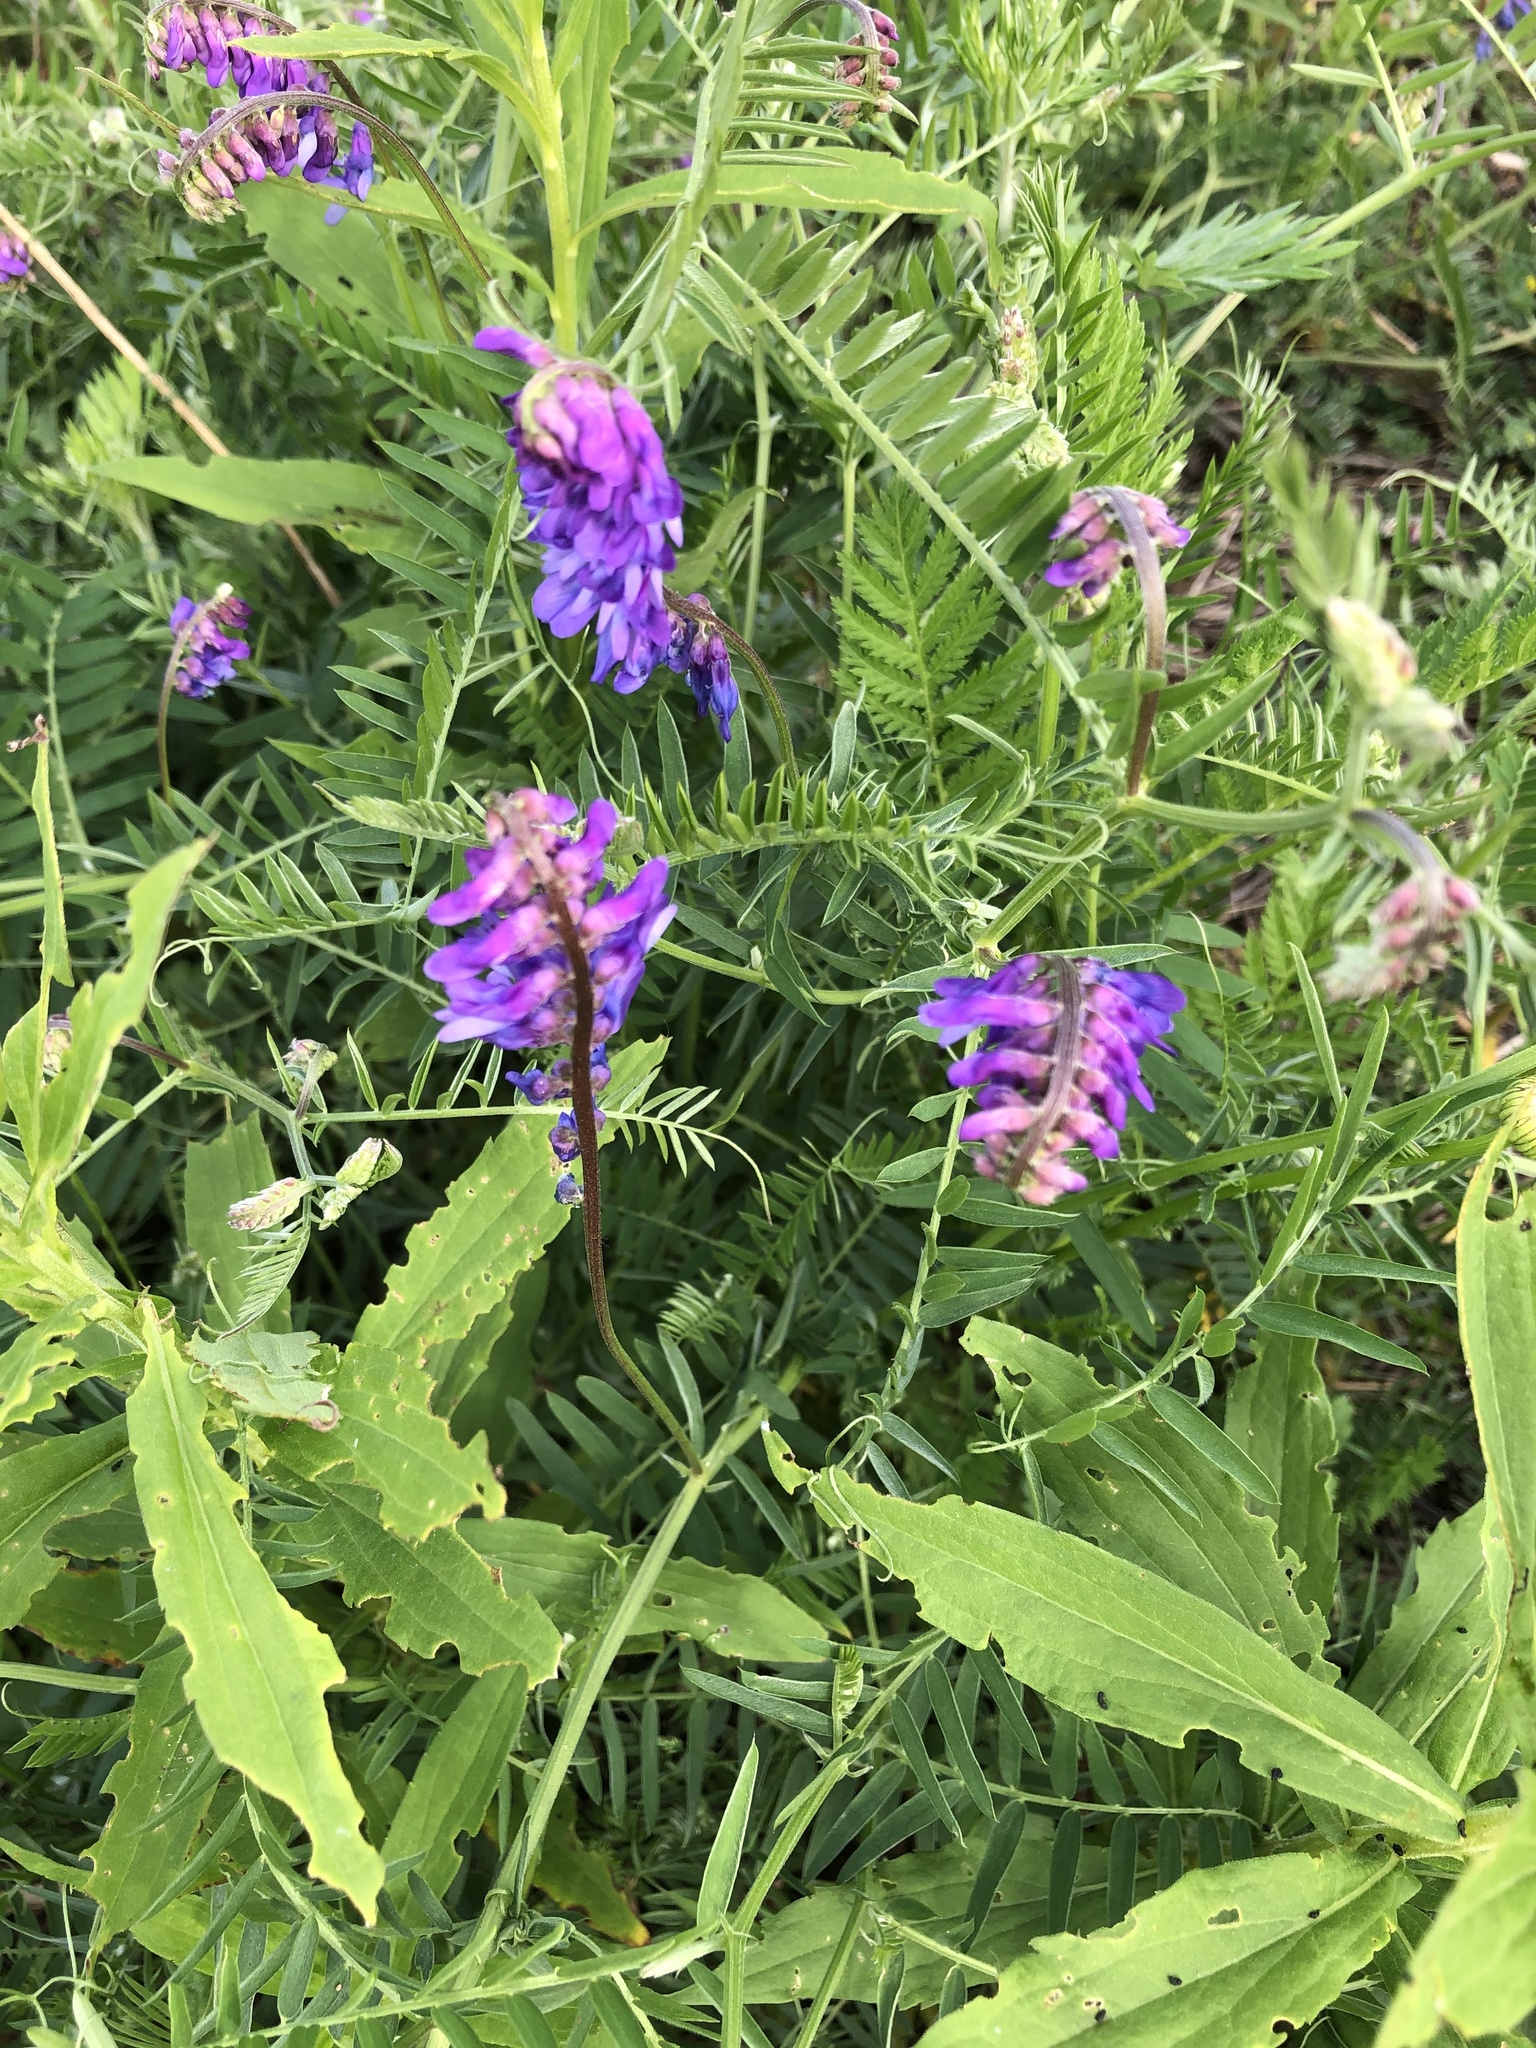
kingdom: Plantae
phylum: Tracheophyta
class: Magnoliopsida
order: Fabales
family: Fabaceae
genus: Vicia
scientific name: Vicia cracca
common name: Bird vetch
